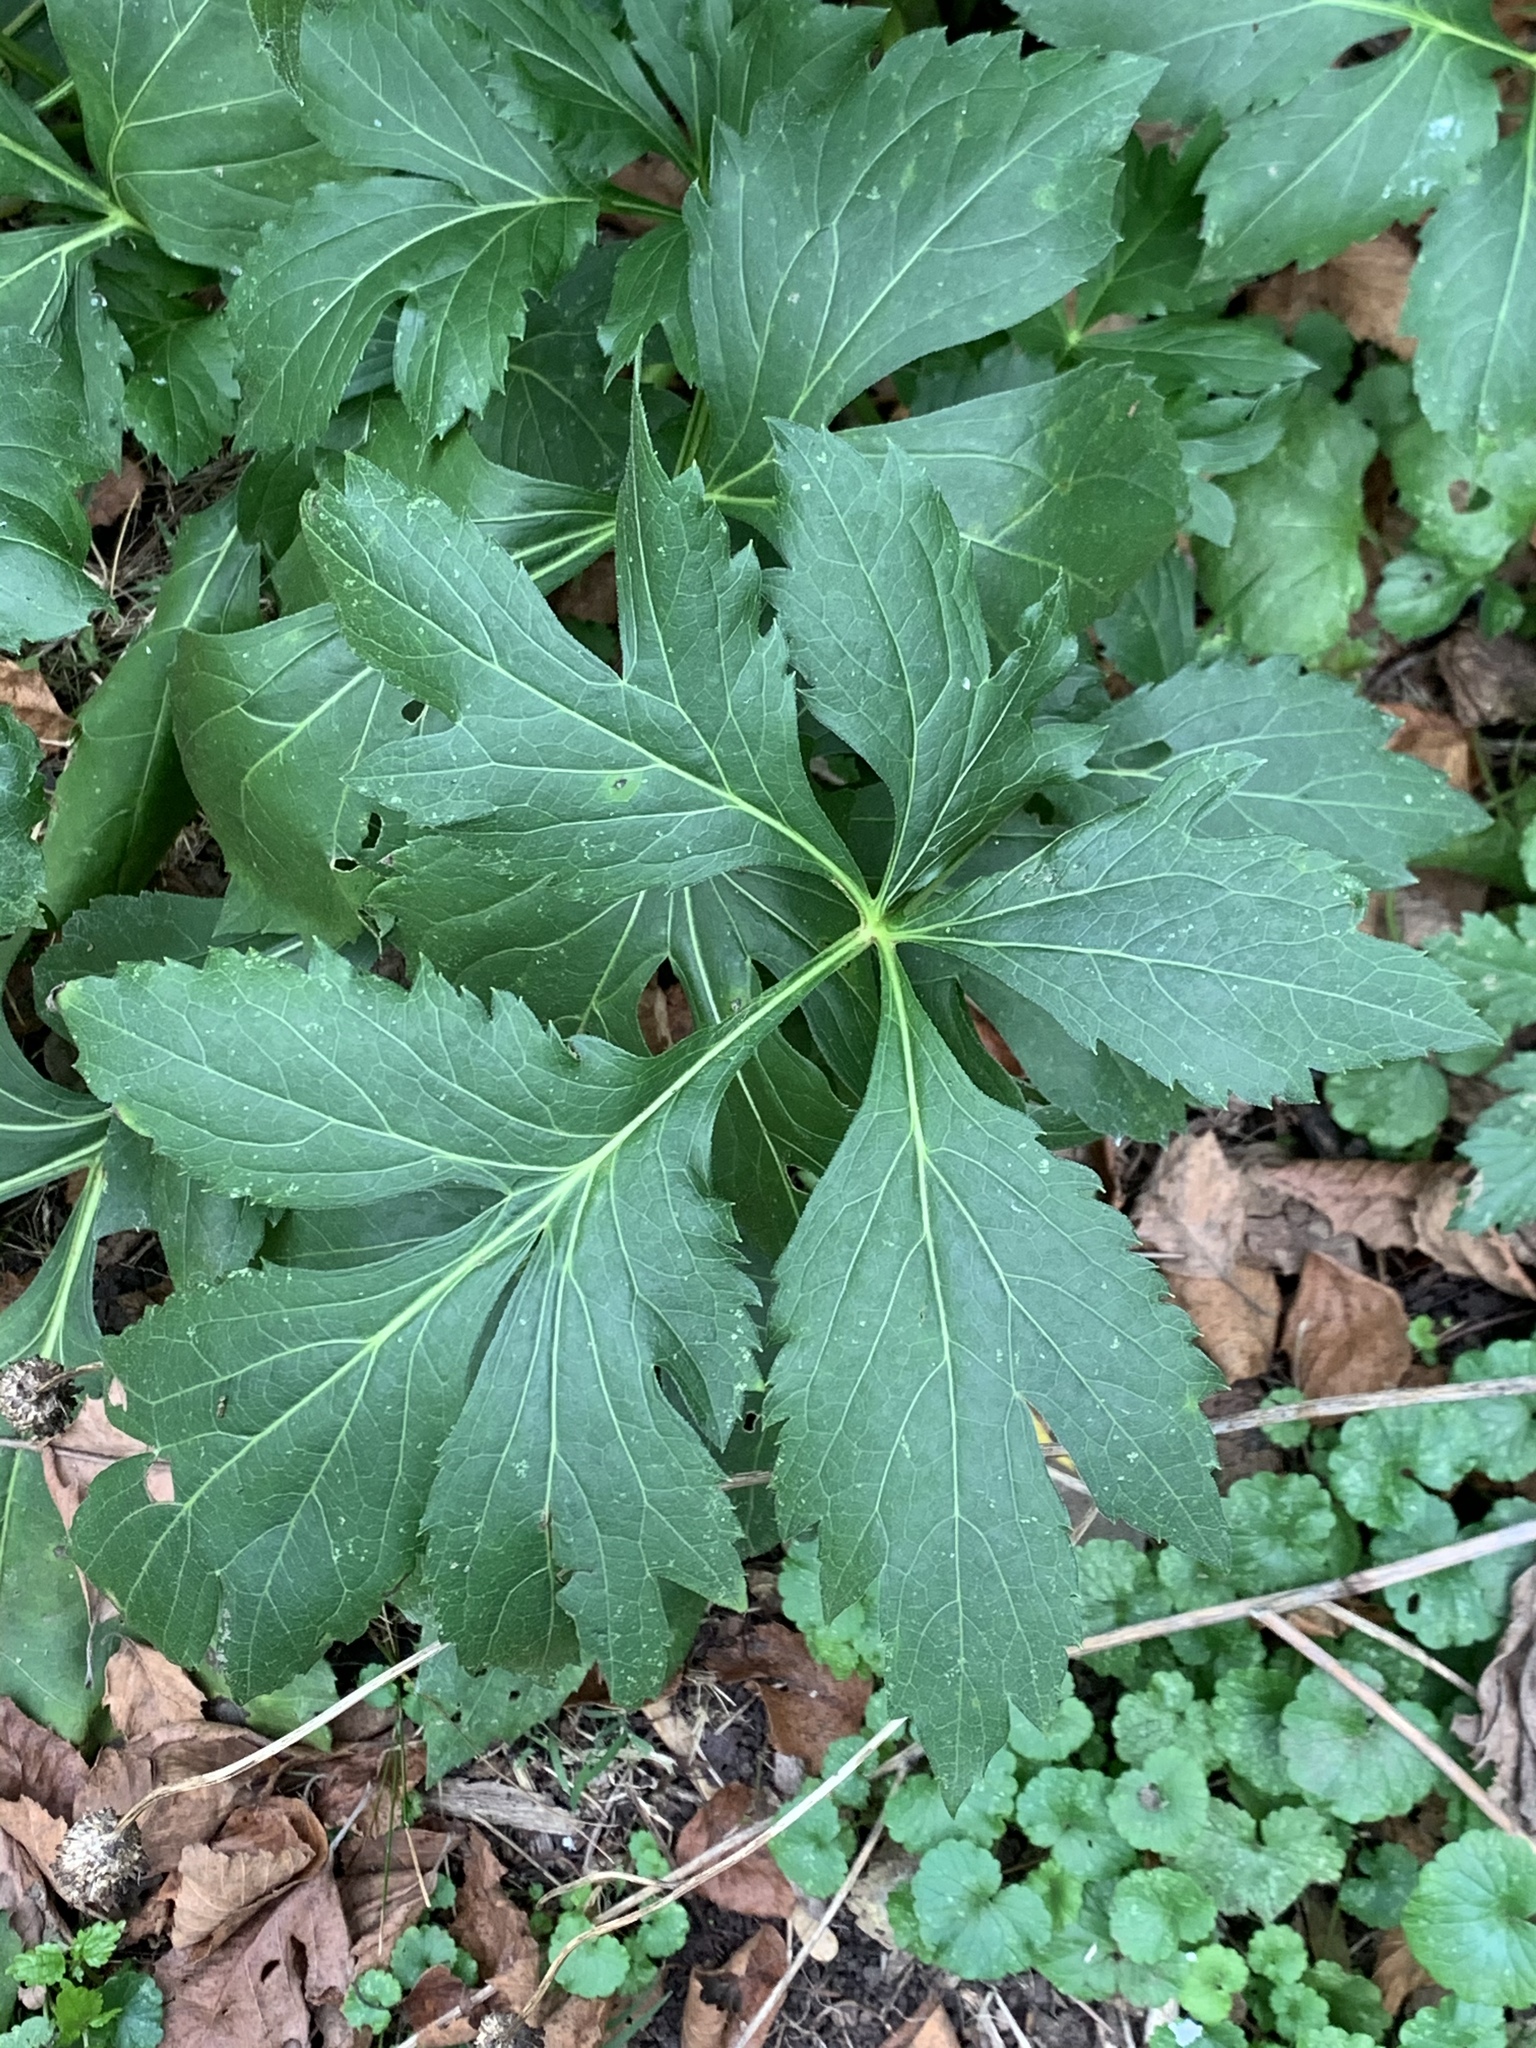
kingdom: Plantae
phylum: Tracheophyta
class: Magnoliopsida
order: Asterales
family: Asteraceae
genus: Rudbeckia
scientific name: Rudbeckia laciniata
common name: Coneflower
